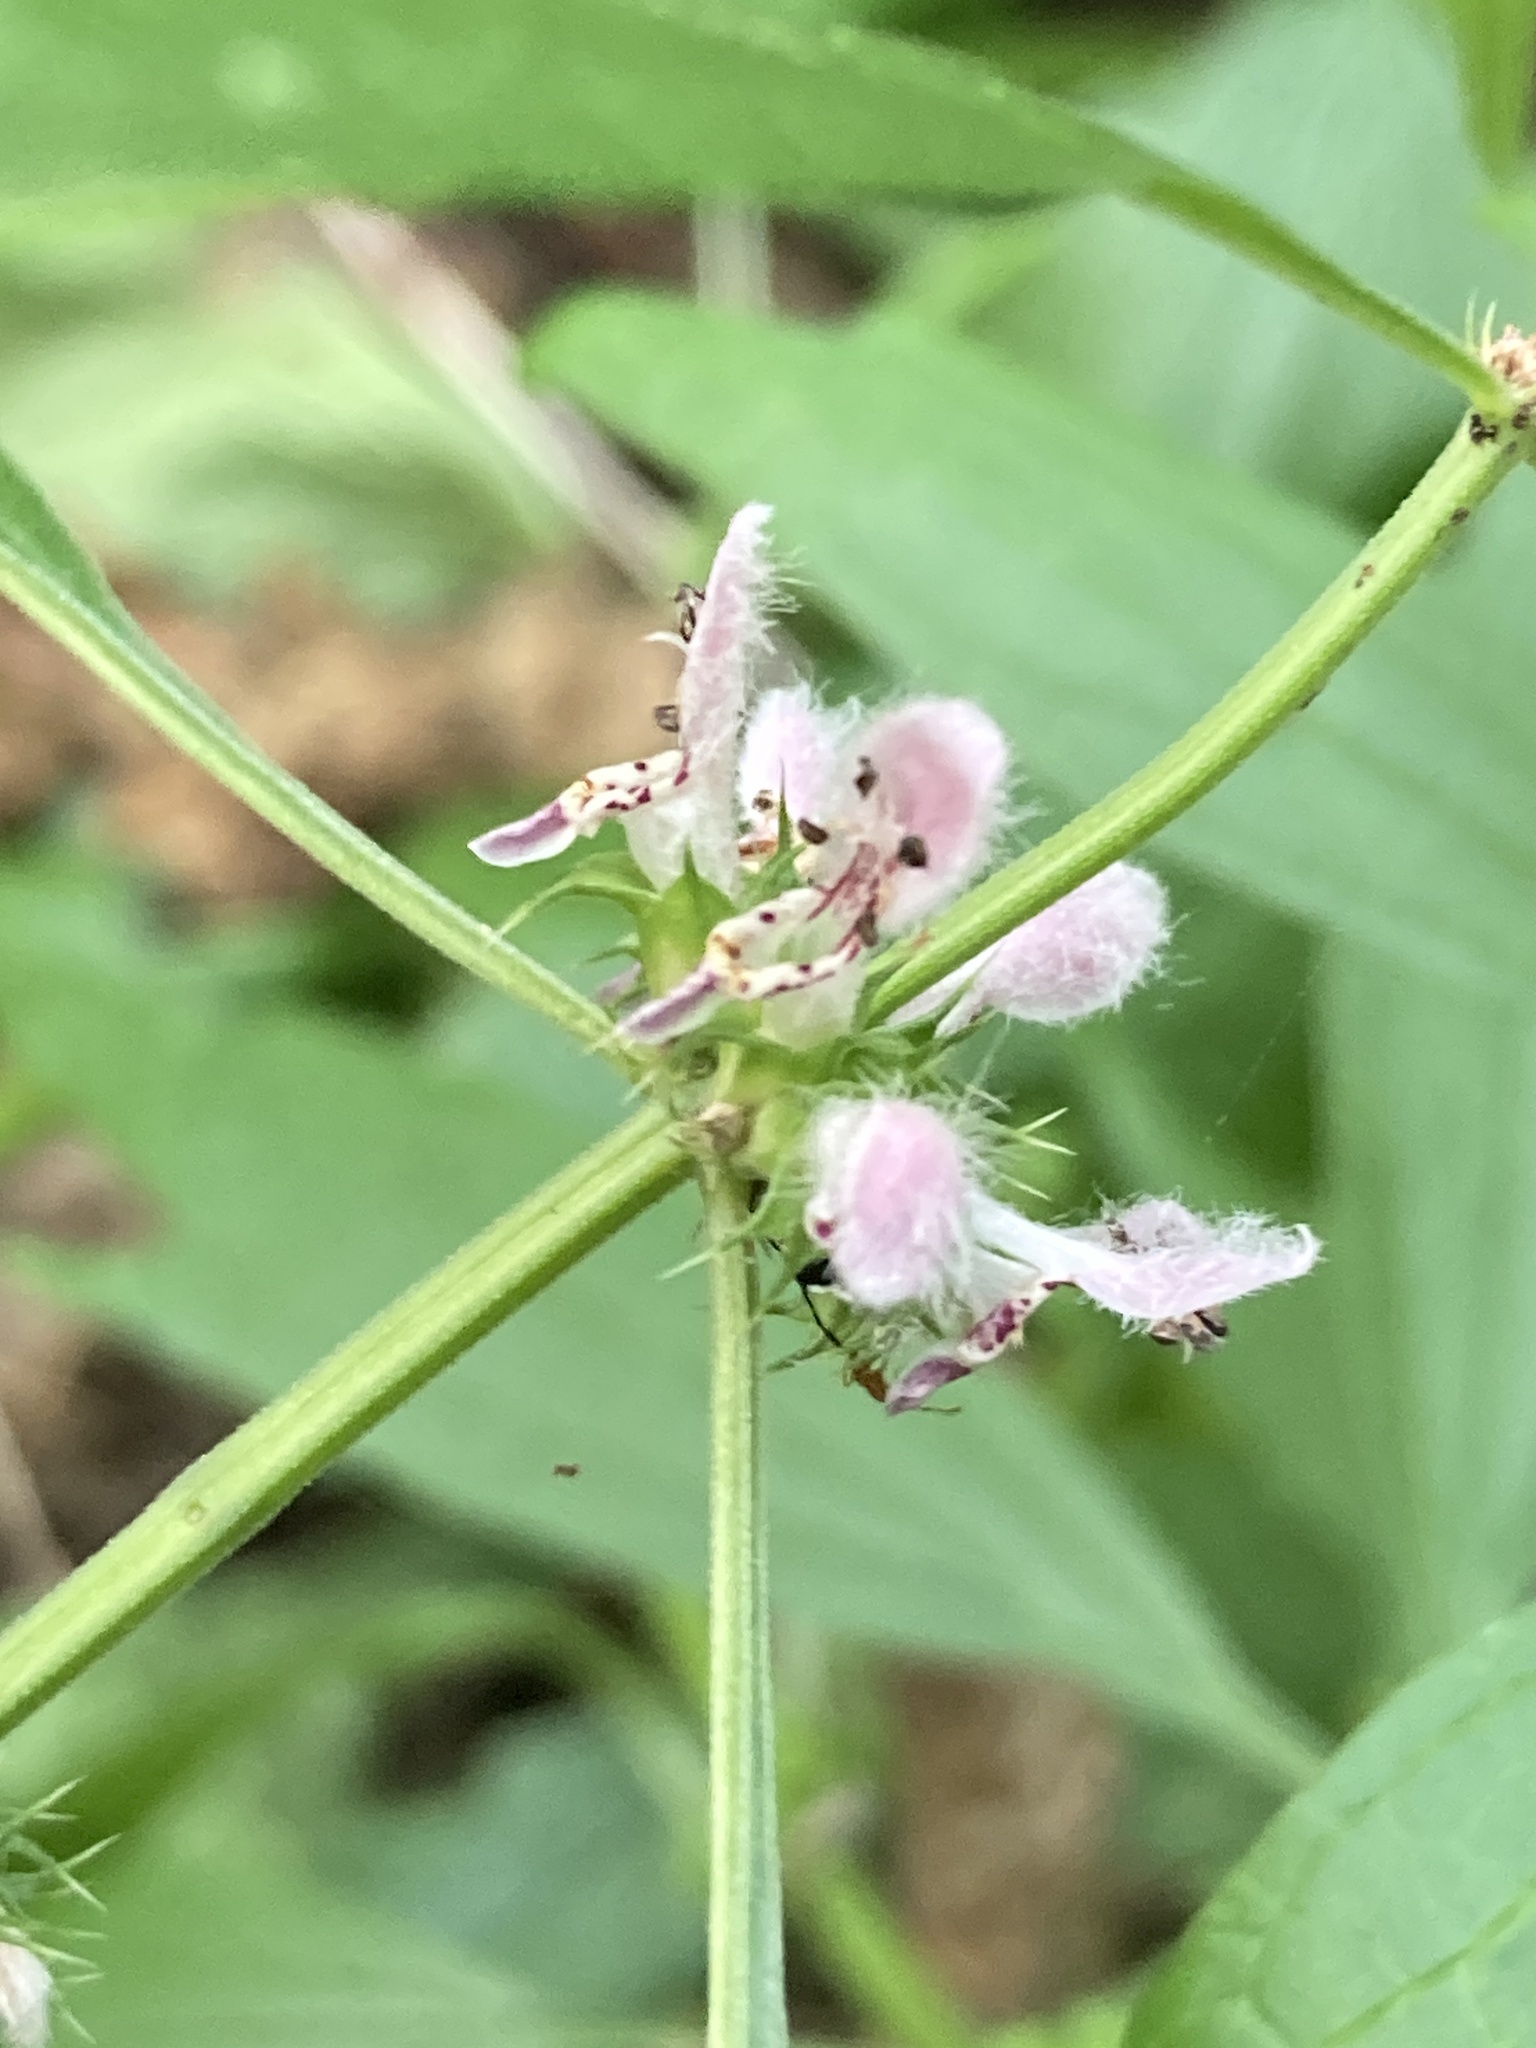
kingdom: Plantae
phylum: Tracheophyta
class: Magnoliopsida
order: Lamiales
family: Lamiaceae
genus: Leonurus
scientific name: Leonurus cardiaca
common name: Motherwort
